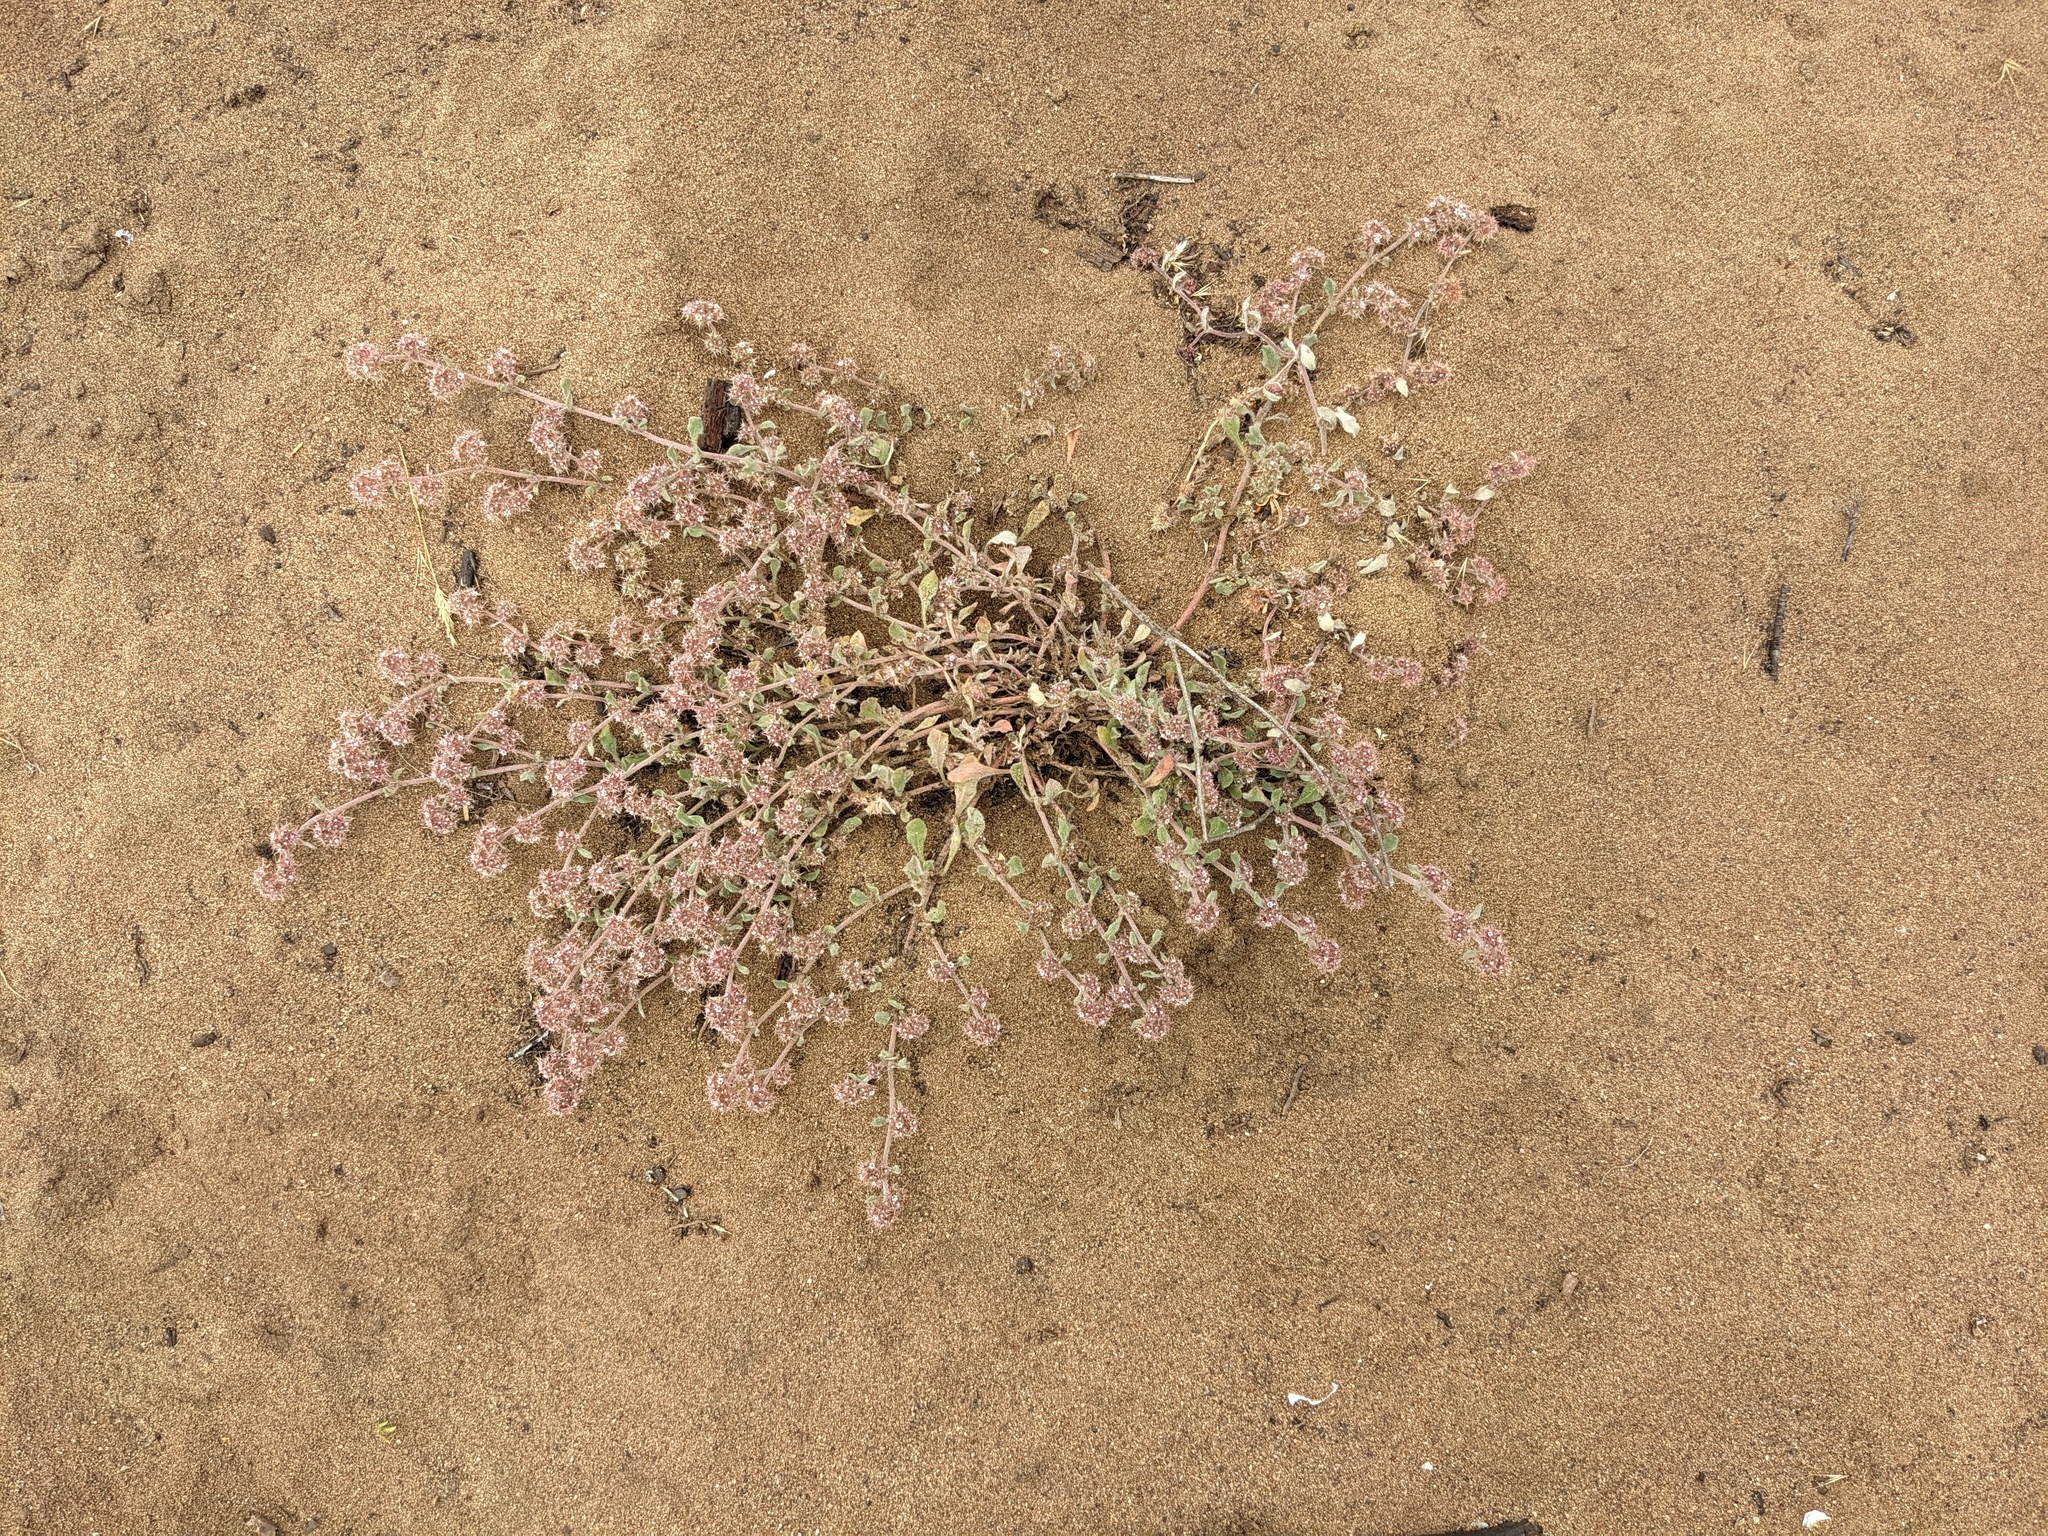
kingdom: Plantae
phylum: Tracheophyta
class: Magnoliopsida
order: Caryophyllales
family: Polygonaceae
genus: Chorizanthe
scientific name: Chorizanthe eastwoodiae
